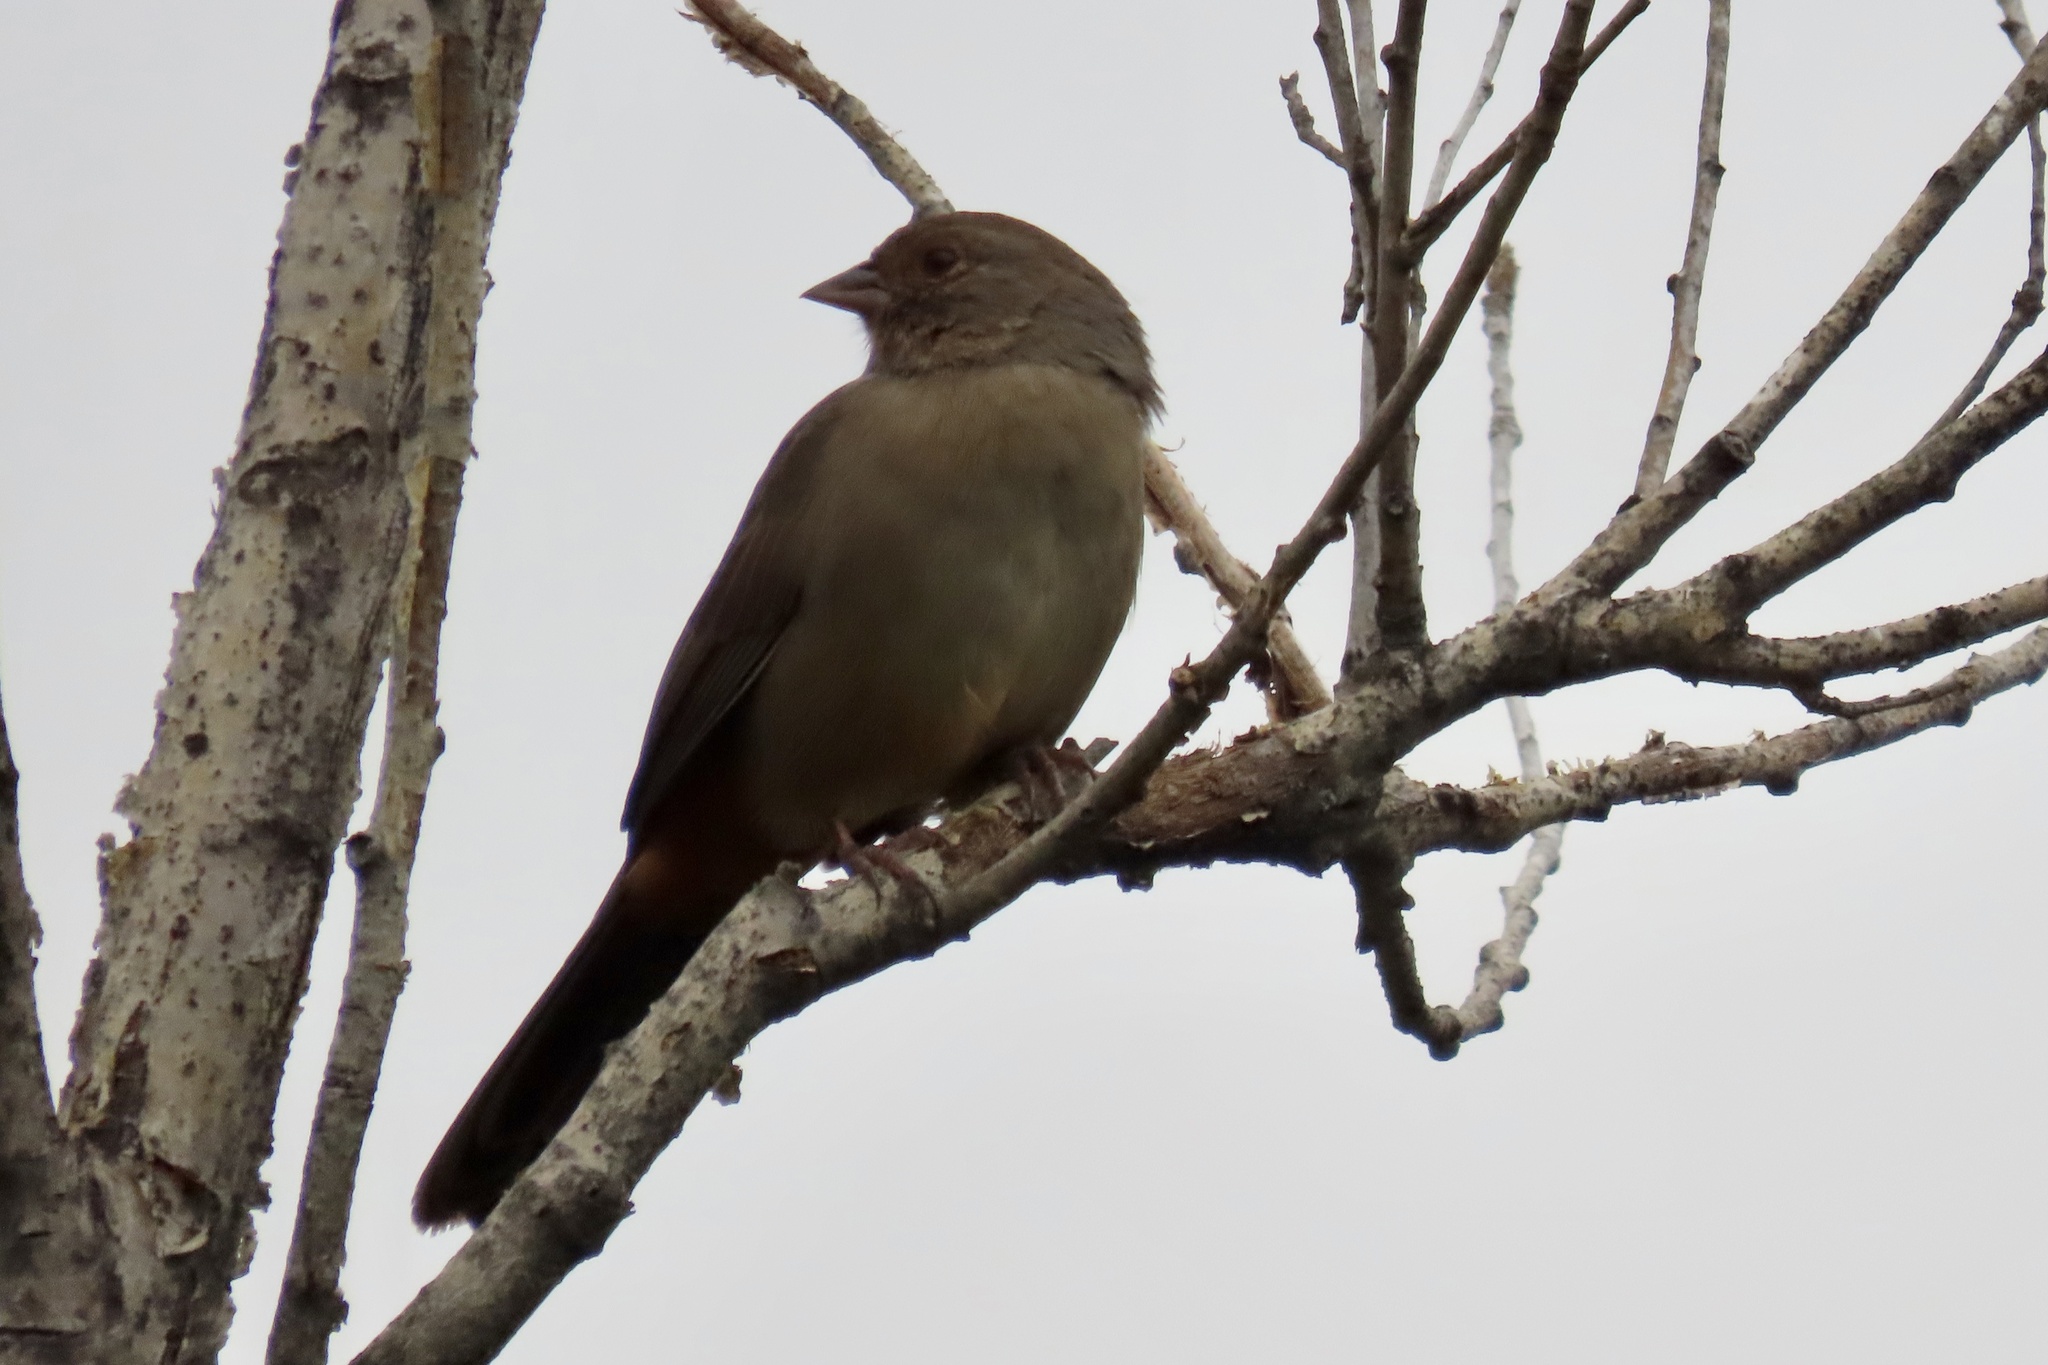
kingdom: Animalia
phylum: Chordata
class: Aves
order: Passeriformes
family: Passerellidae
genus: Melozone
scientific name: Melozone crissalis
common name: California towhee
